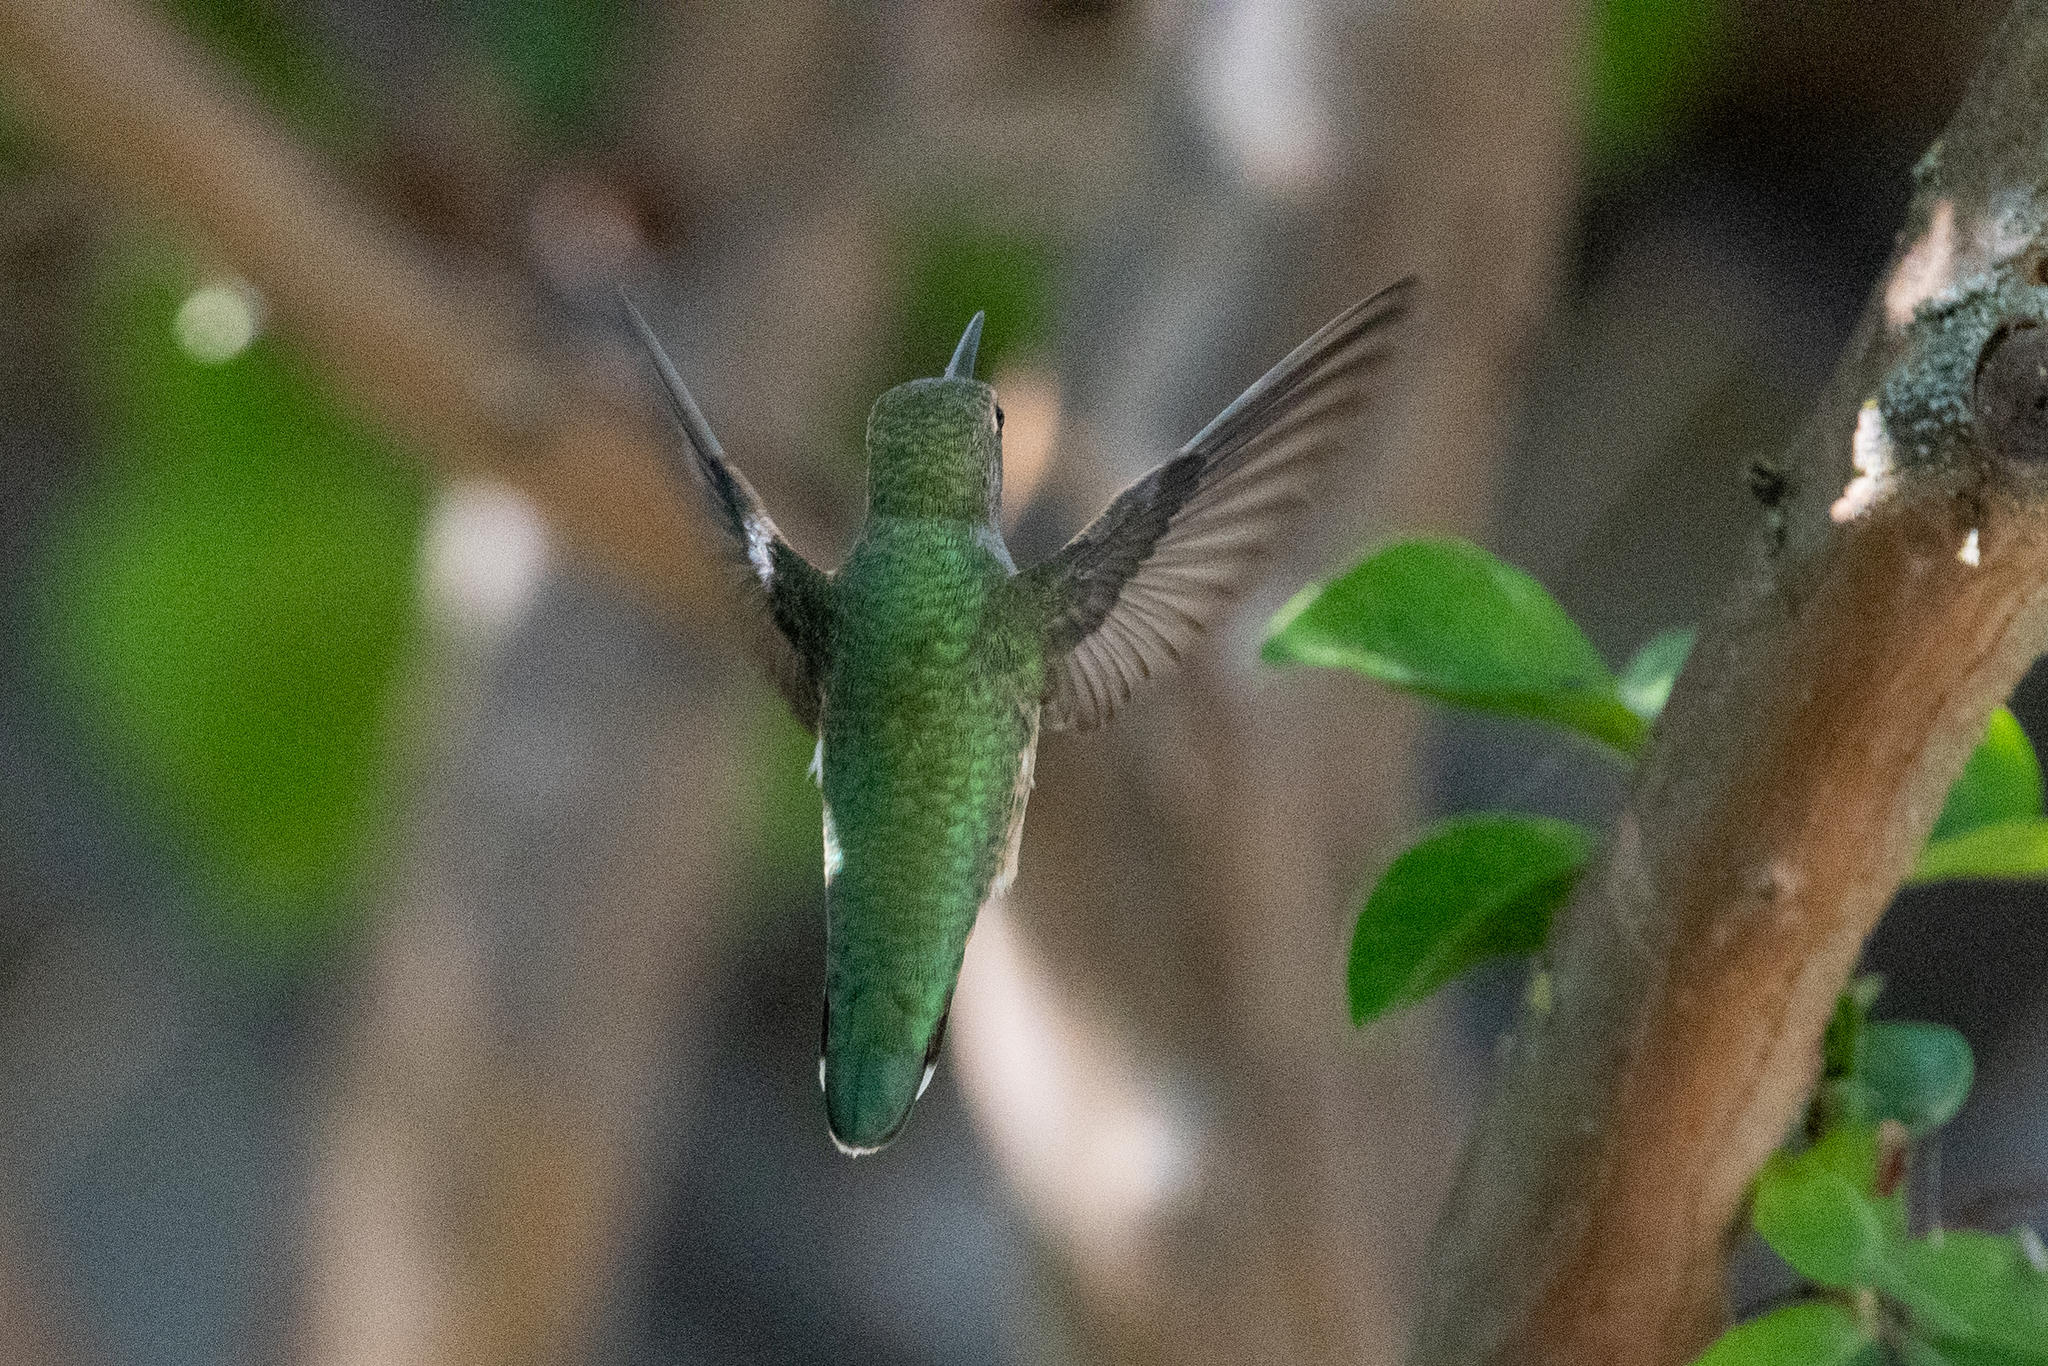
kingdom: Animalia
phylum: Chordata
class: Aves
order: Apodiformes
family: Trochilidae
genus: Calypte
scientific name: Calypte anna
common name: Anna's hummingbird
